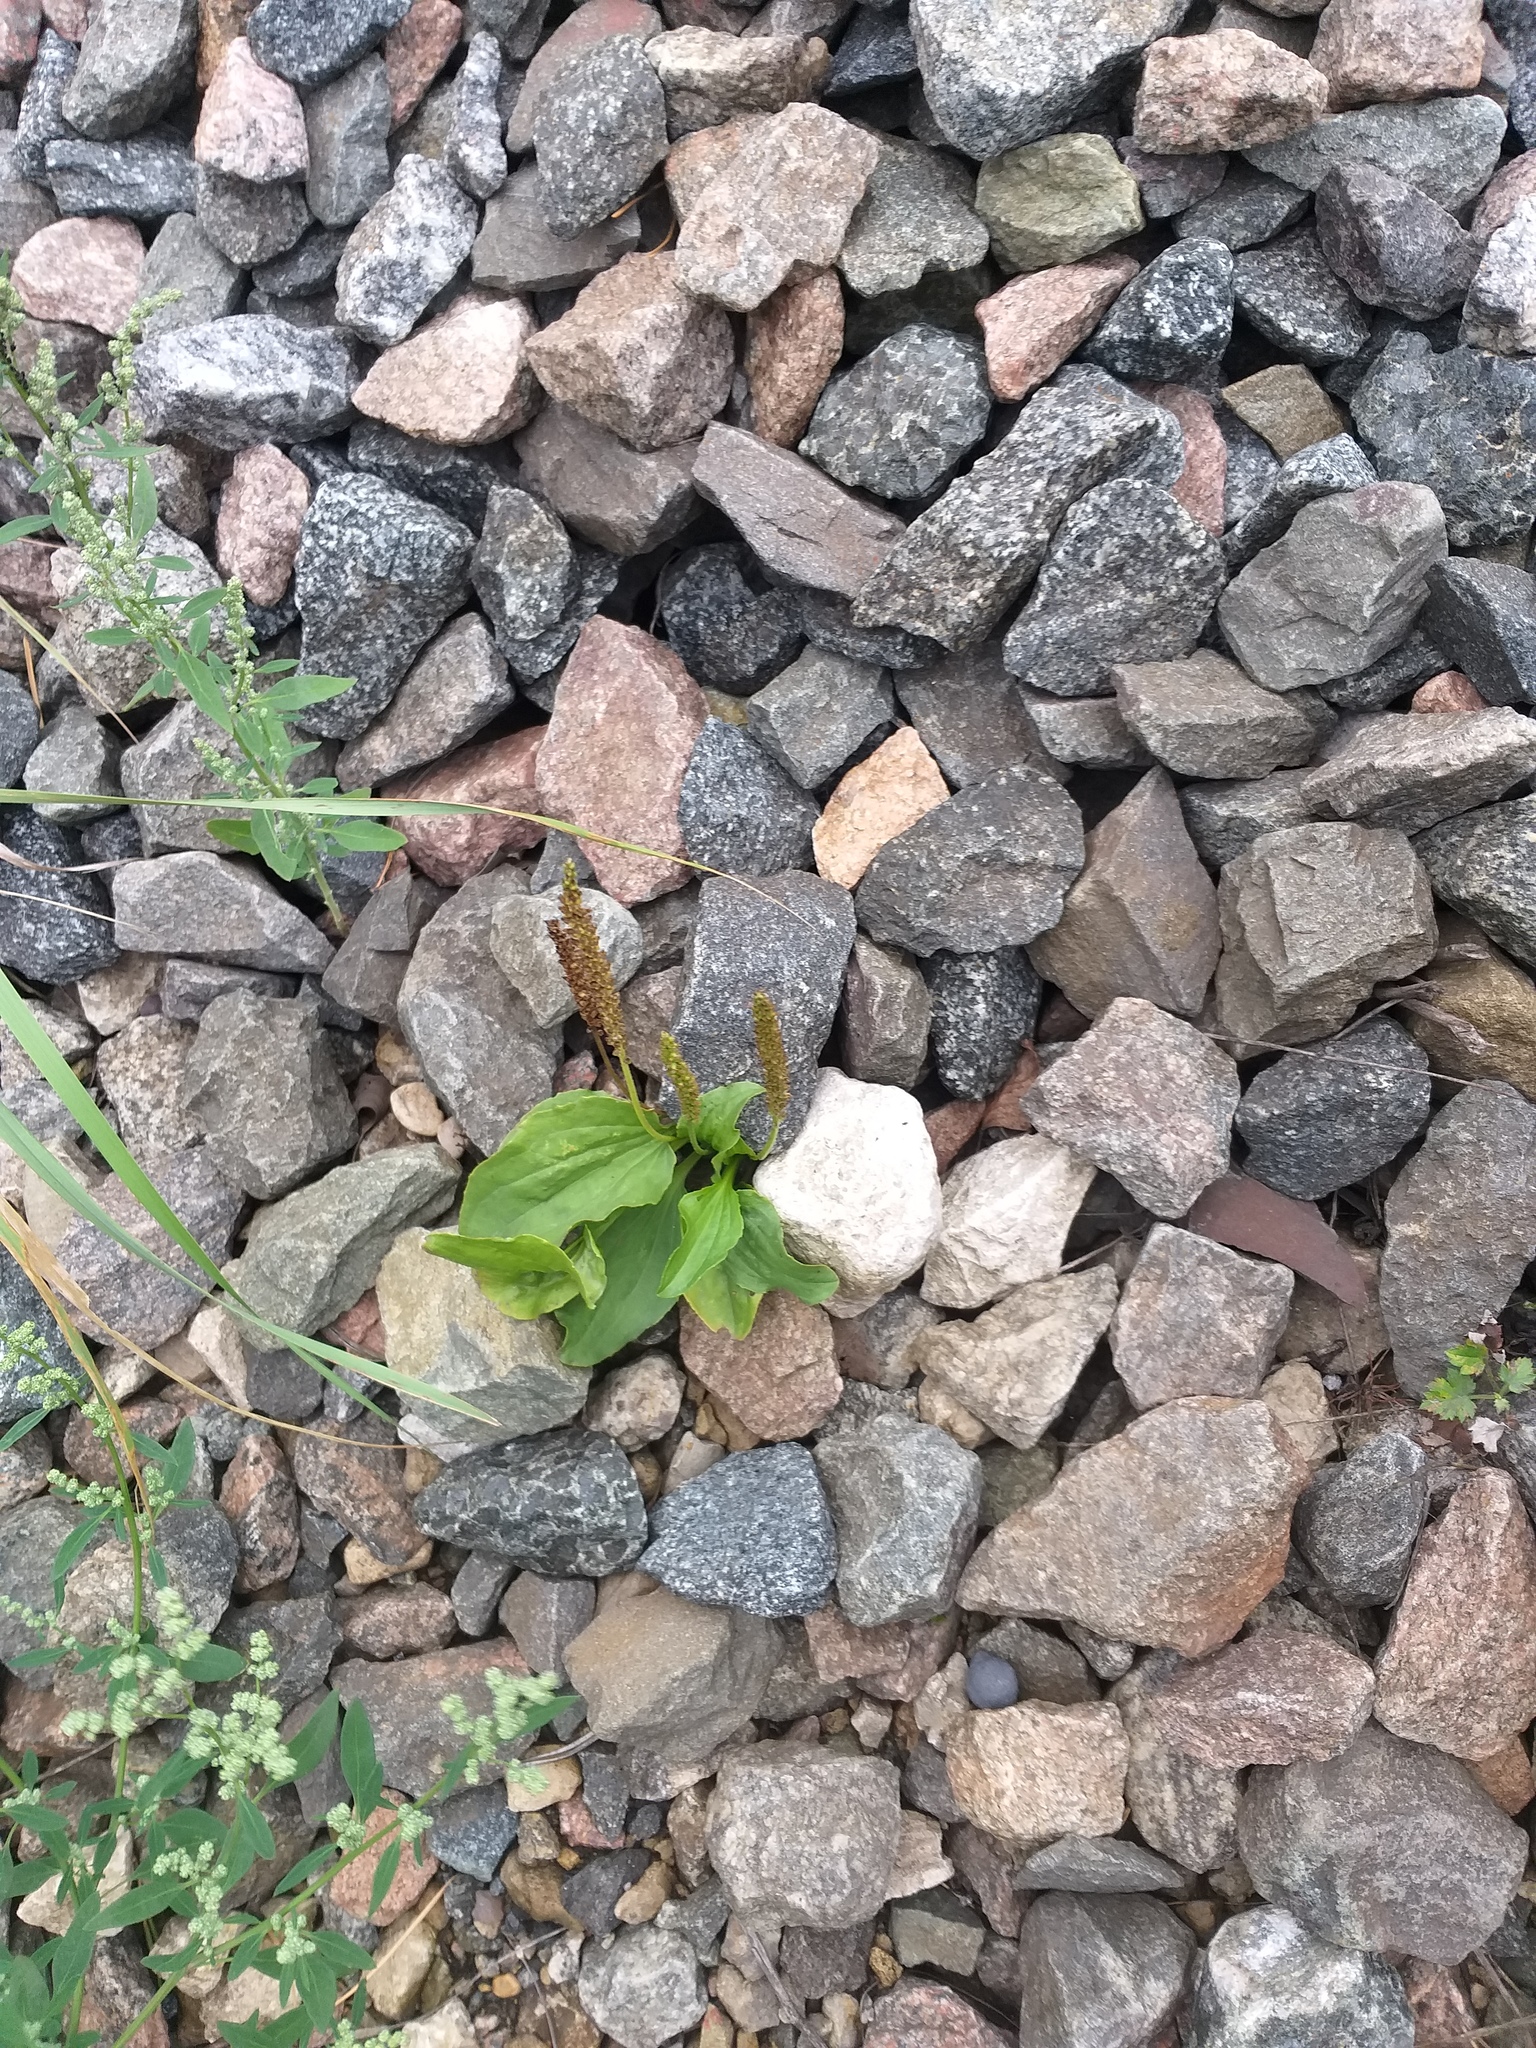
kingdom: Plantae
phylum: Tracheophyta
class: Magnoliopsida
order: Lamiales
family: Plantaginaceae
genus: Plantago
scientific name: Plantago major
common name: Common plantain
